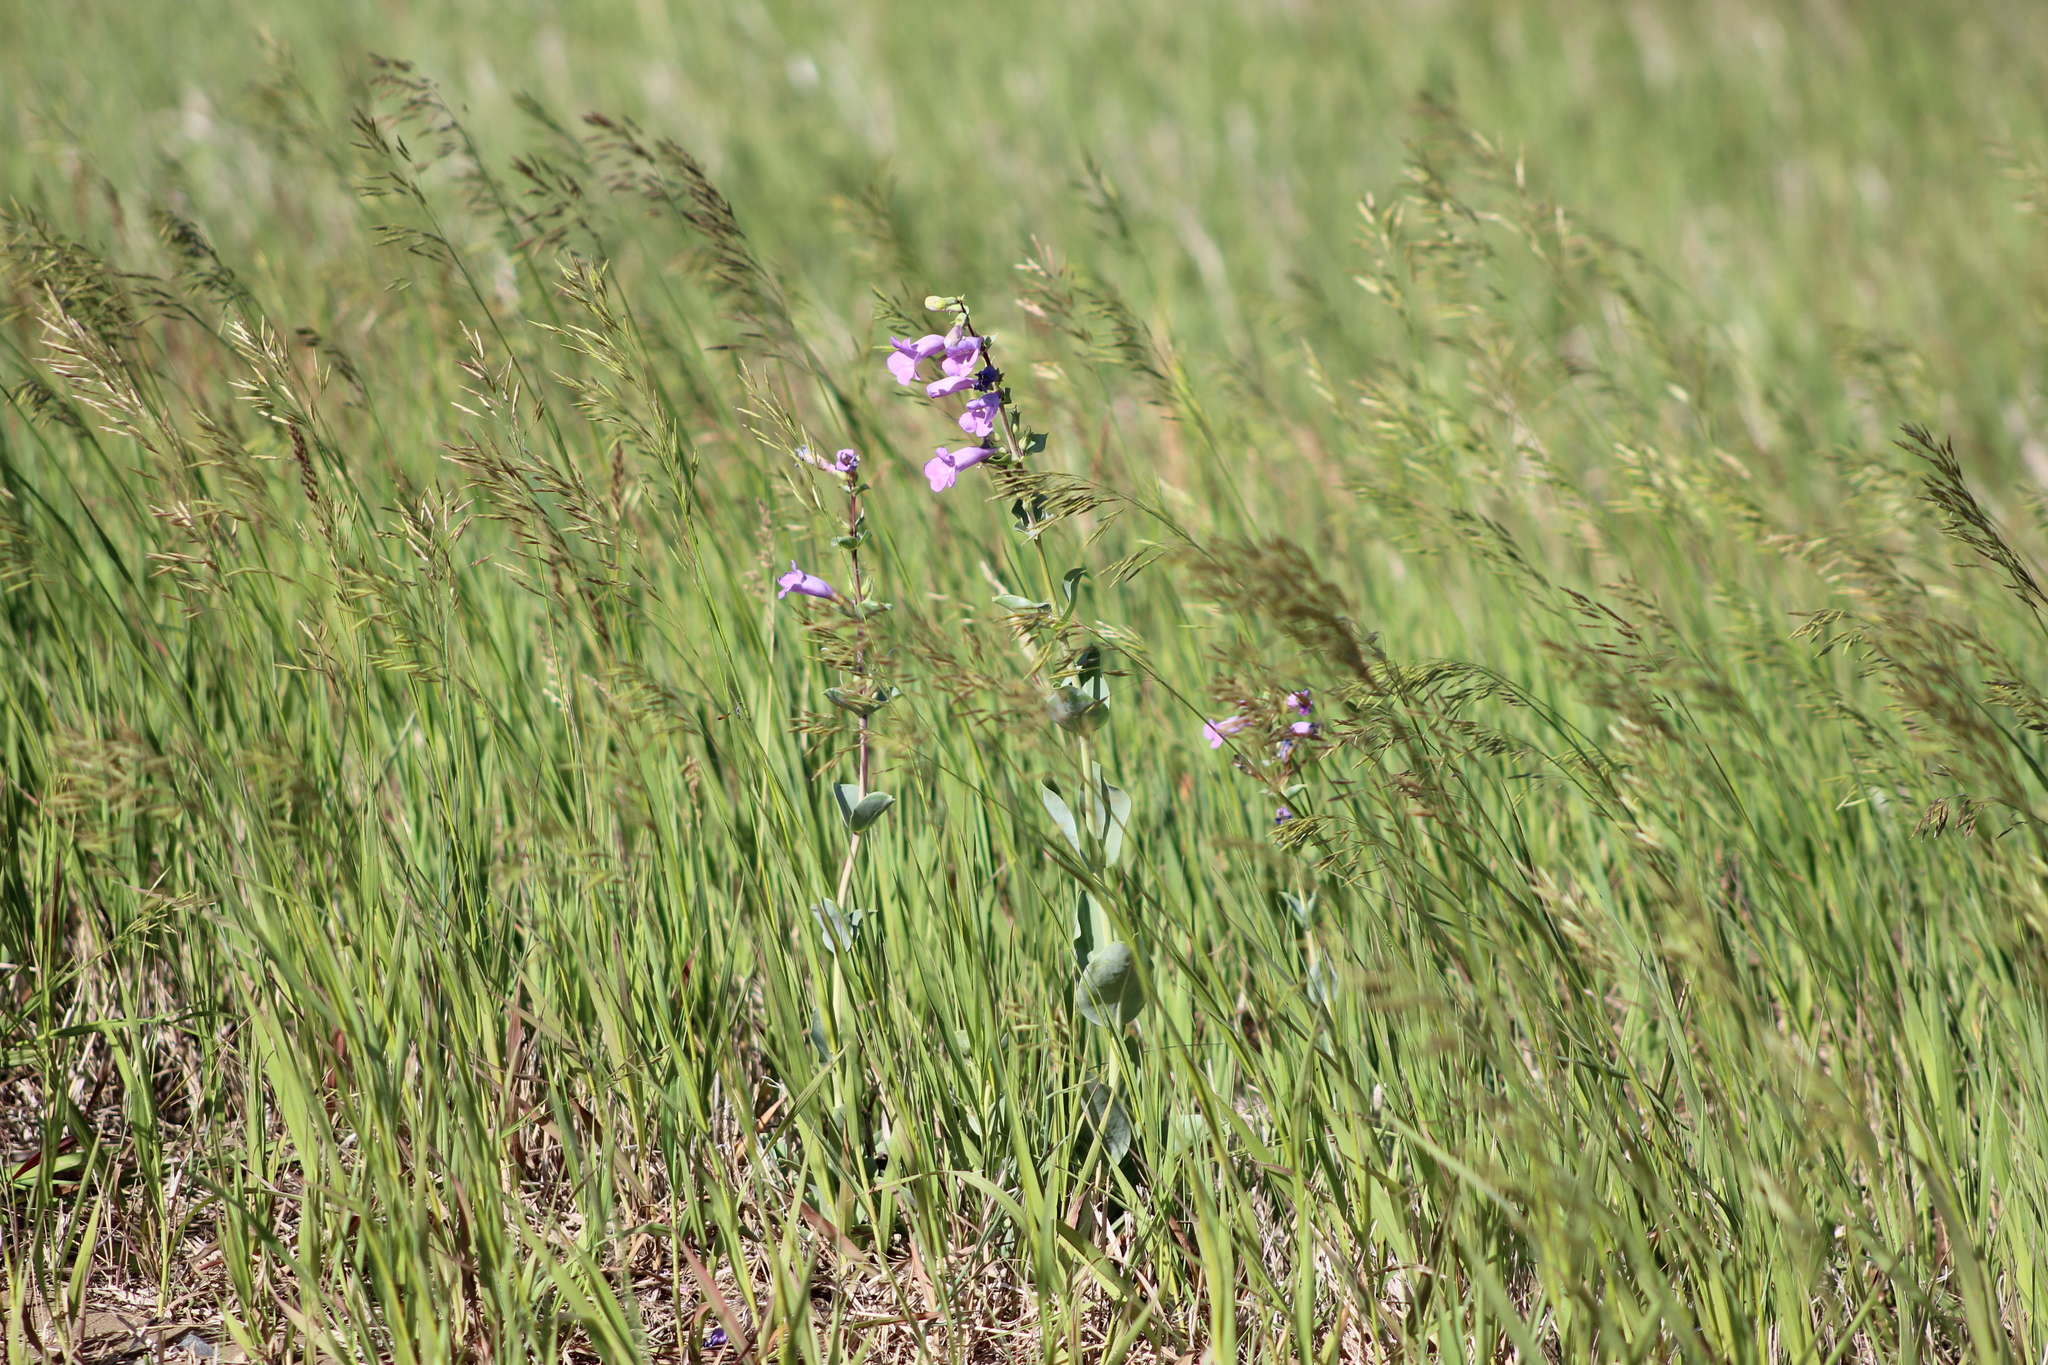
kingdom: Plantae
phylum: Tracheophyta
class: Magnoliopsida
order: Lamiales
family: Plantaginaceae
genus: Penstemon
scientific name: Penstemon
